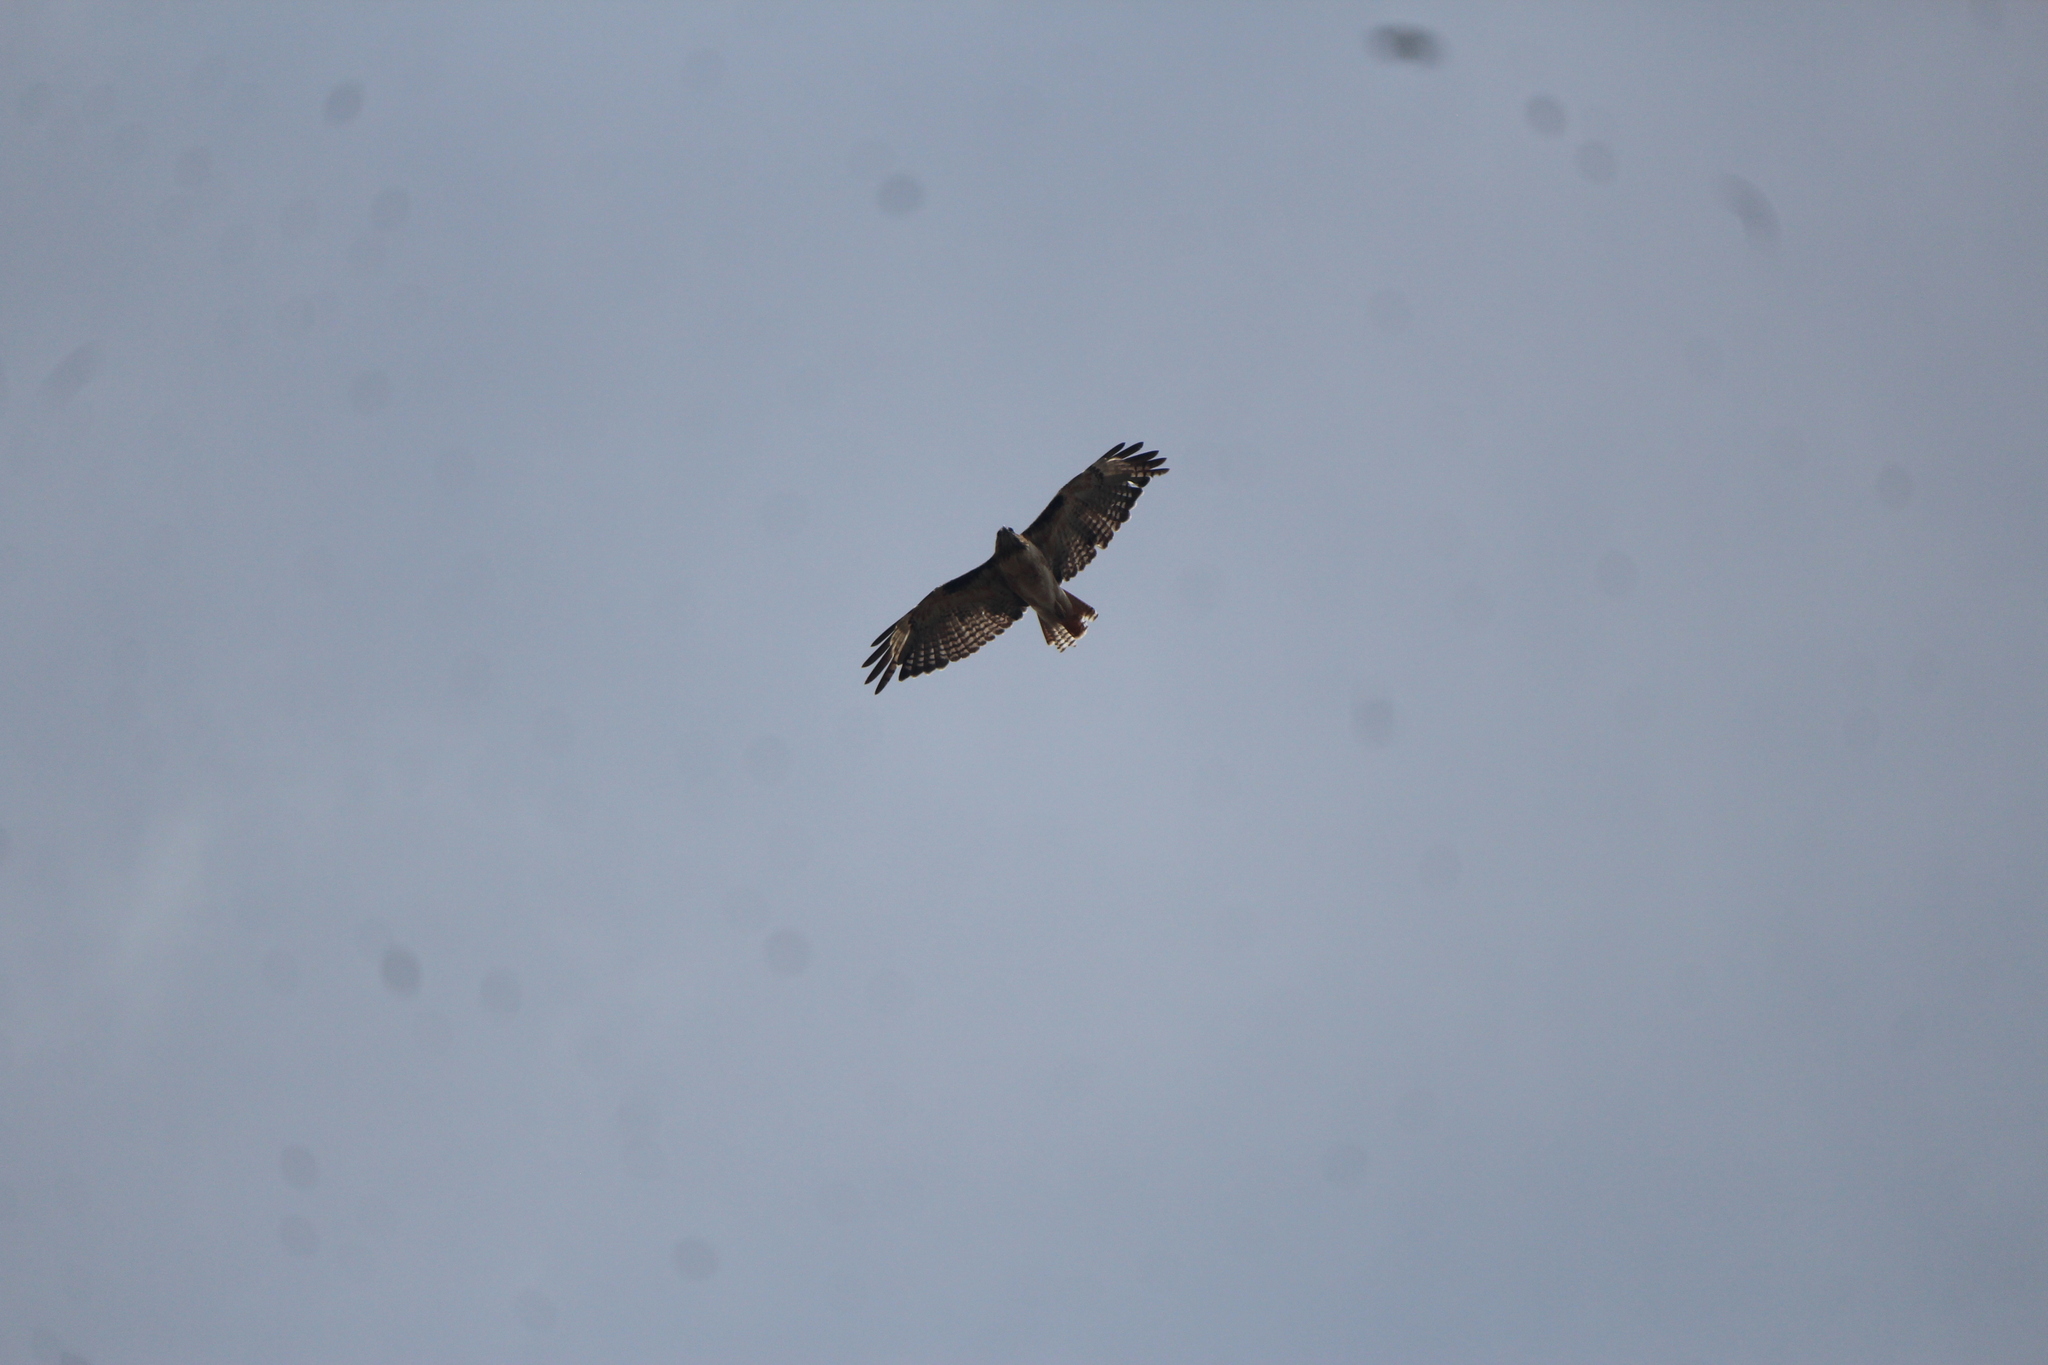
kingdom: Animalia
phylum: Chordata
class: Aves
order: Accipitriformes
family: Accipitridae
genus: Buteo
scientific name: Buteo jamaicensis
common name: Red-tailed hawk
